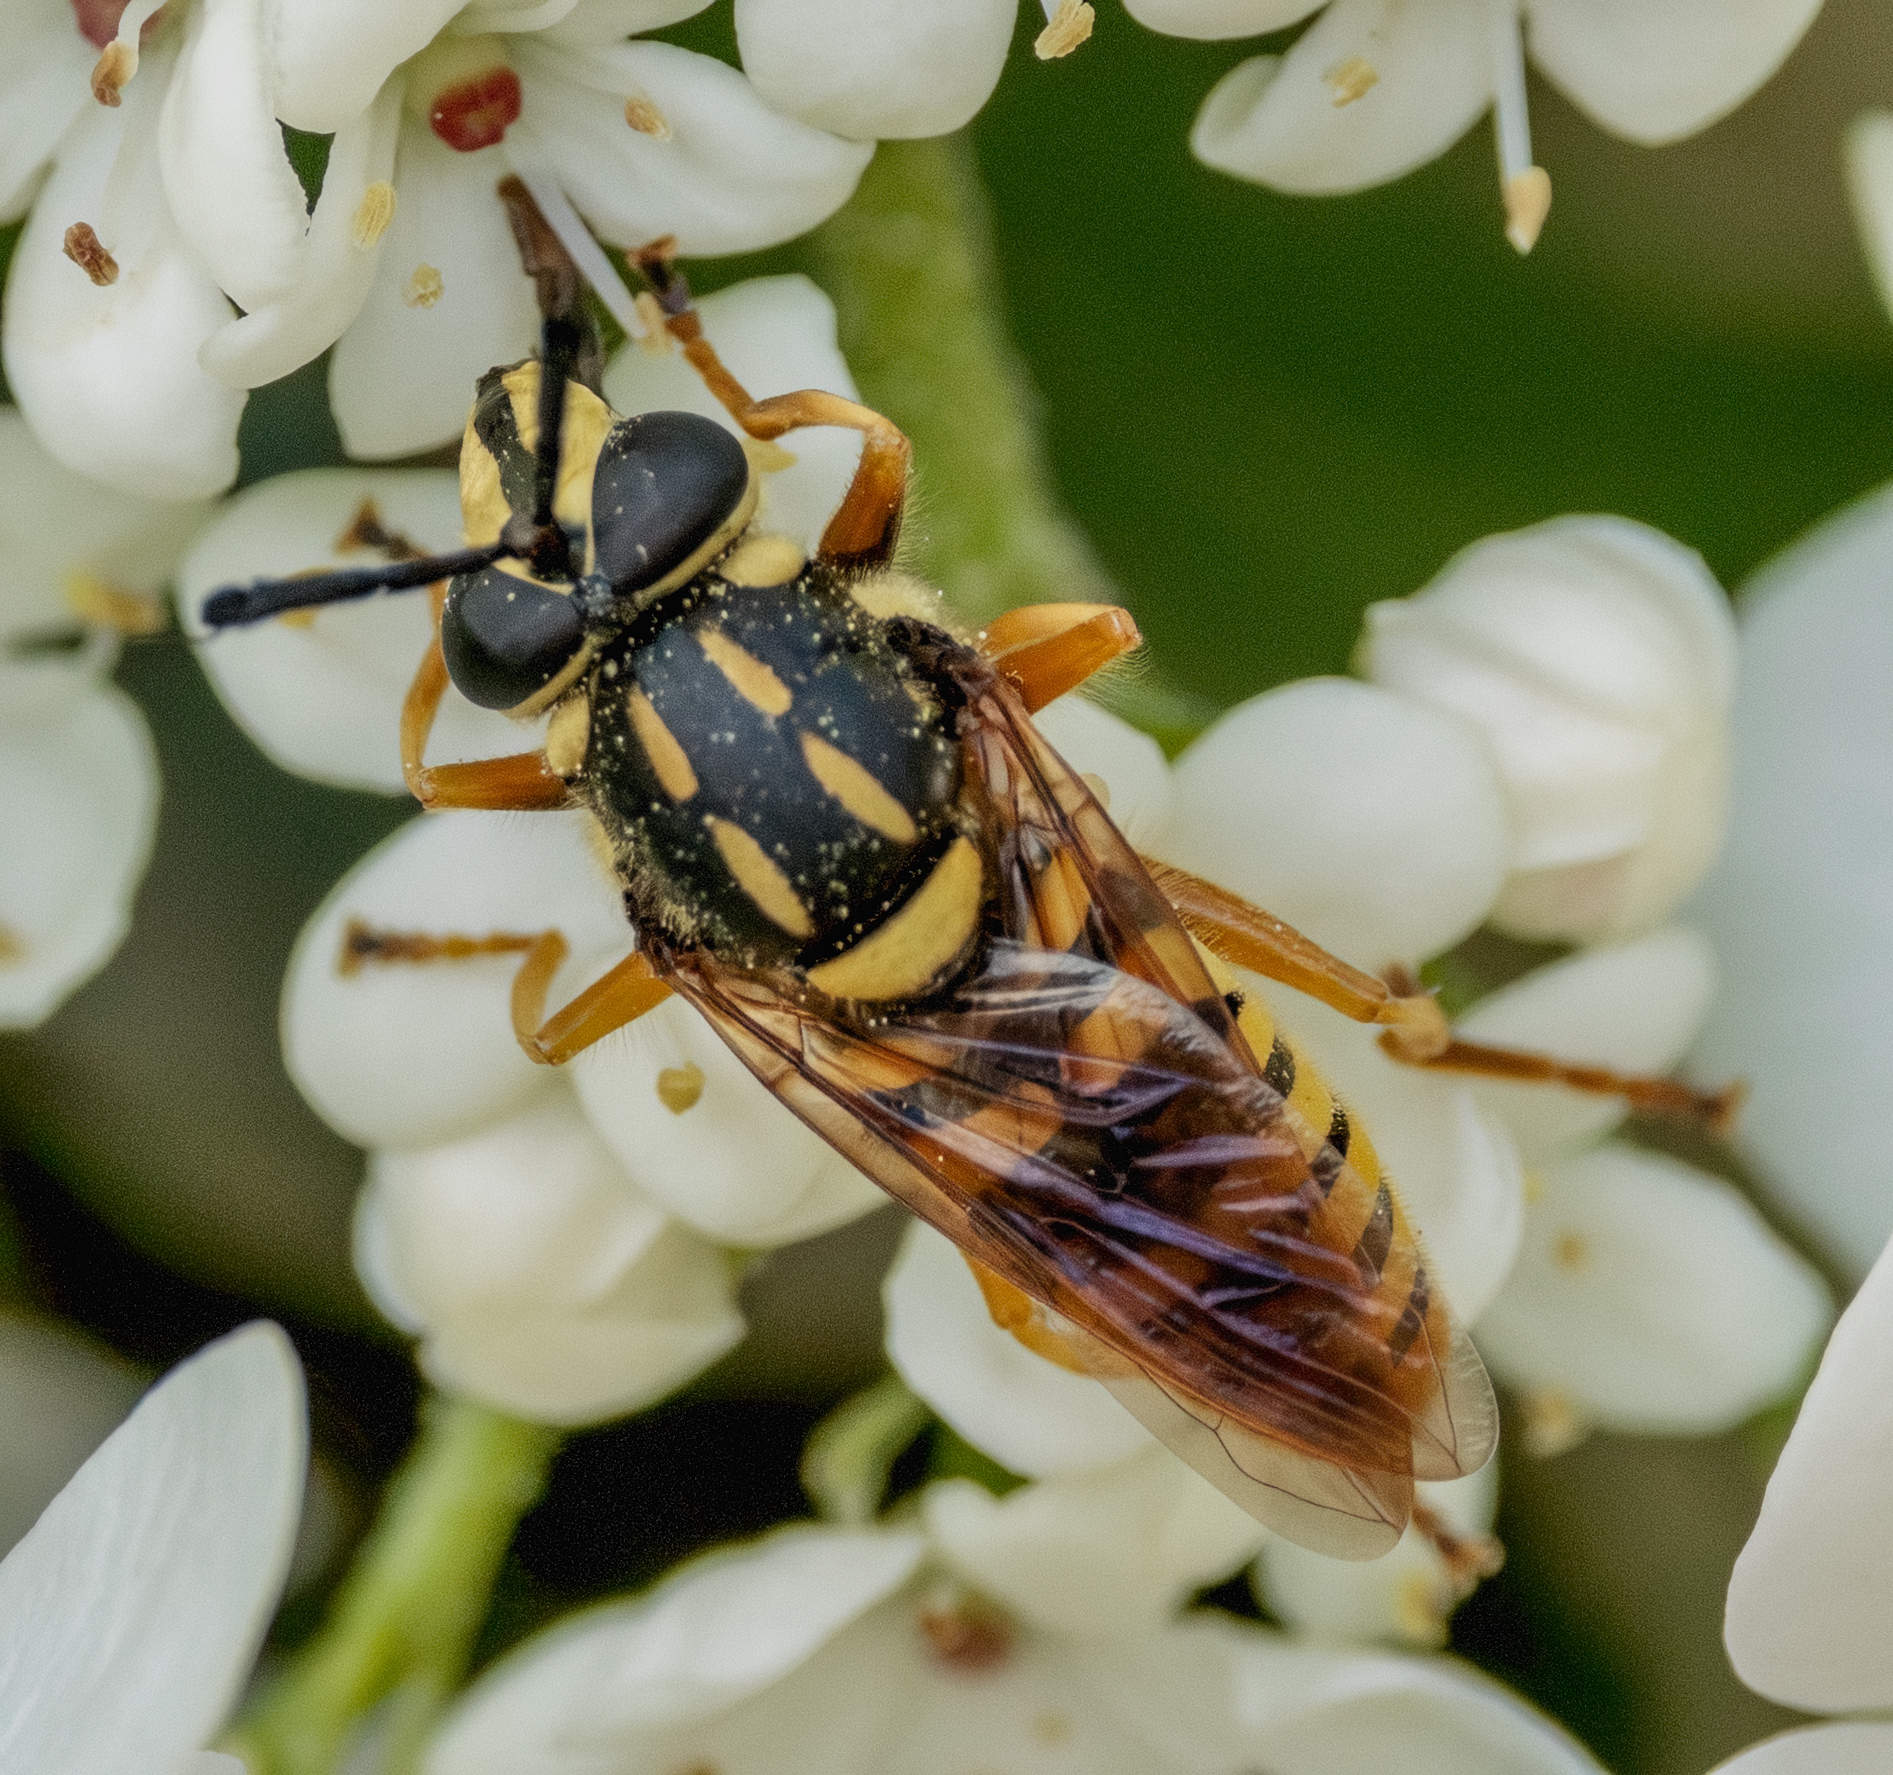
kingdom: Animalia
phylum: Arthropoda
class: Insecta
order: Diptera
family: Syrphidae
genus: Sphecomyia
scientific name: Sphecomyia vittata
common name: Long-horned yellowjacket fly
